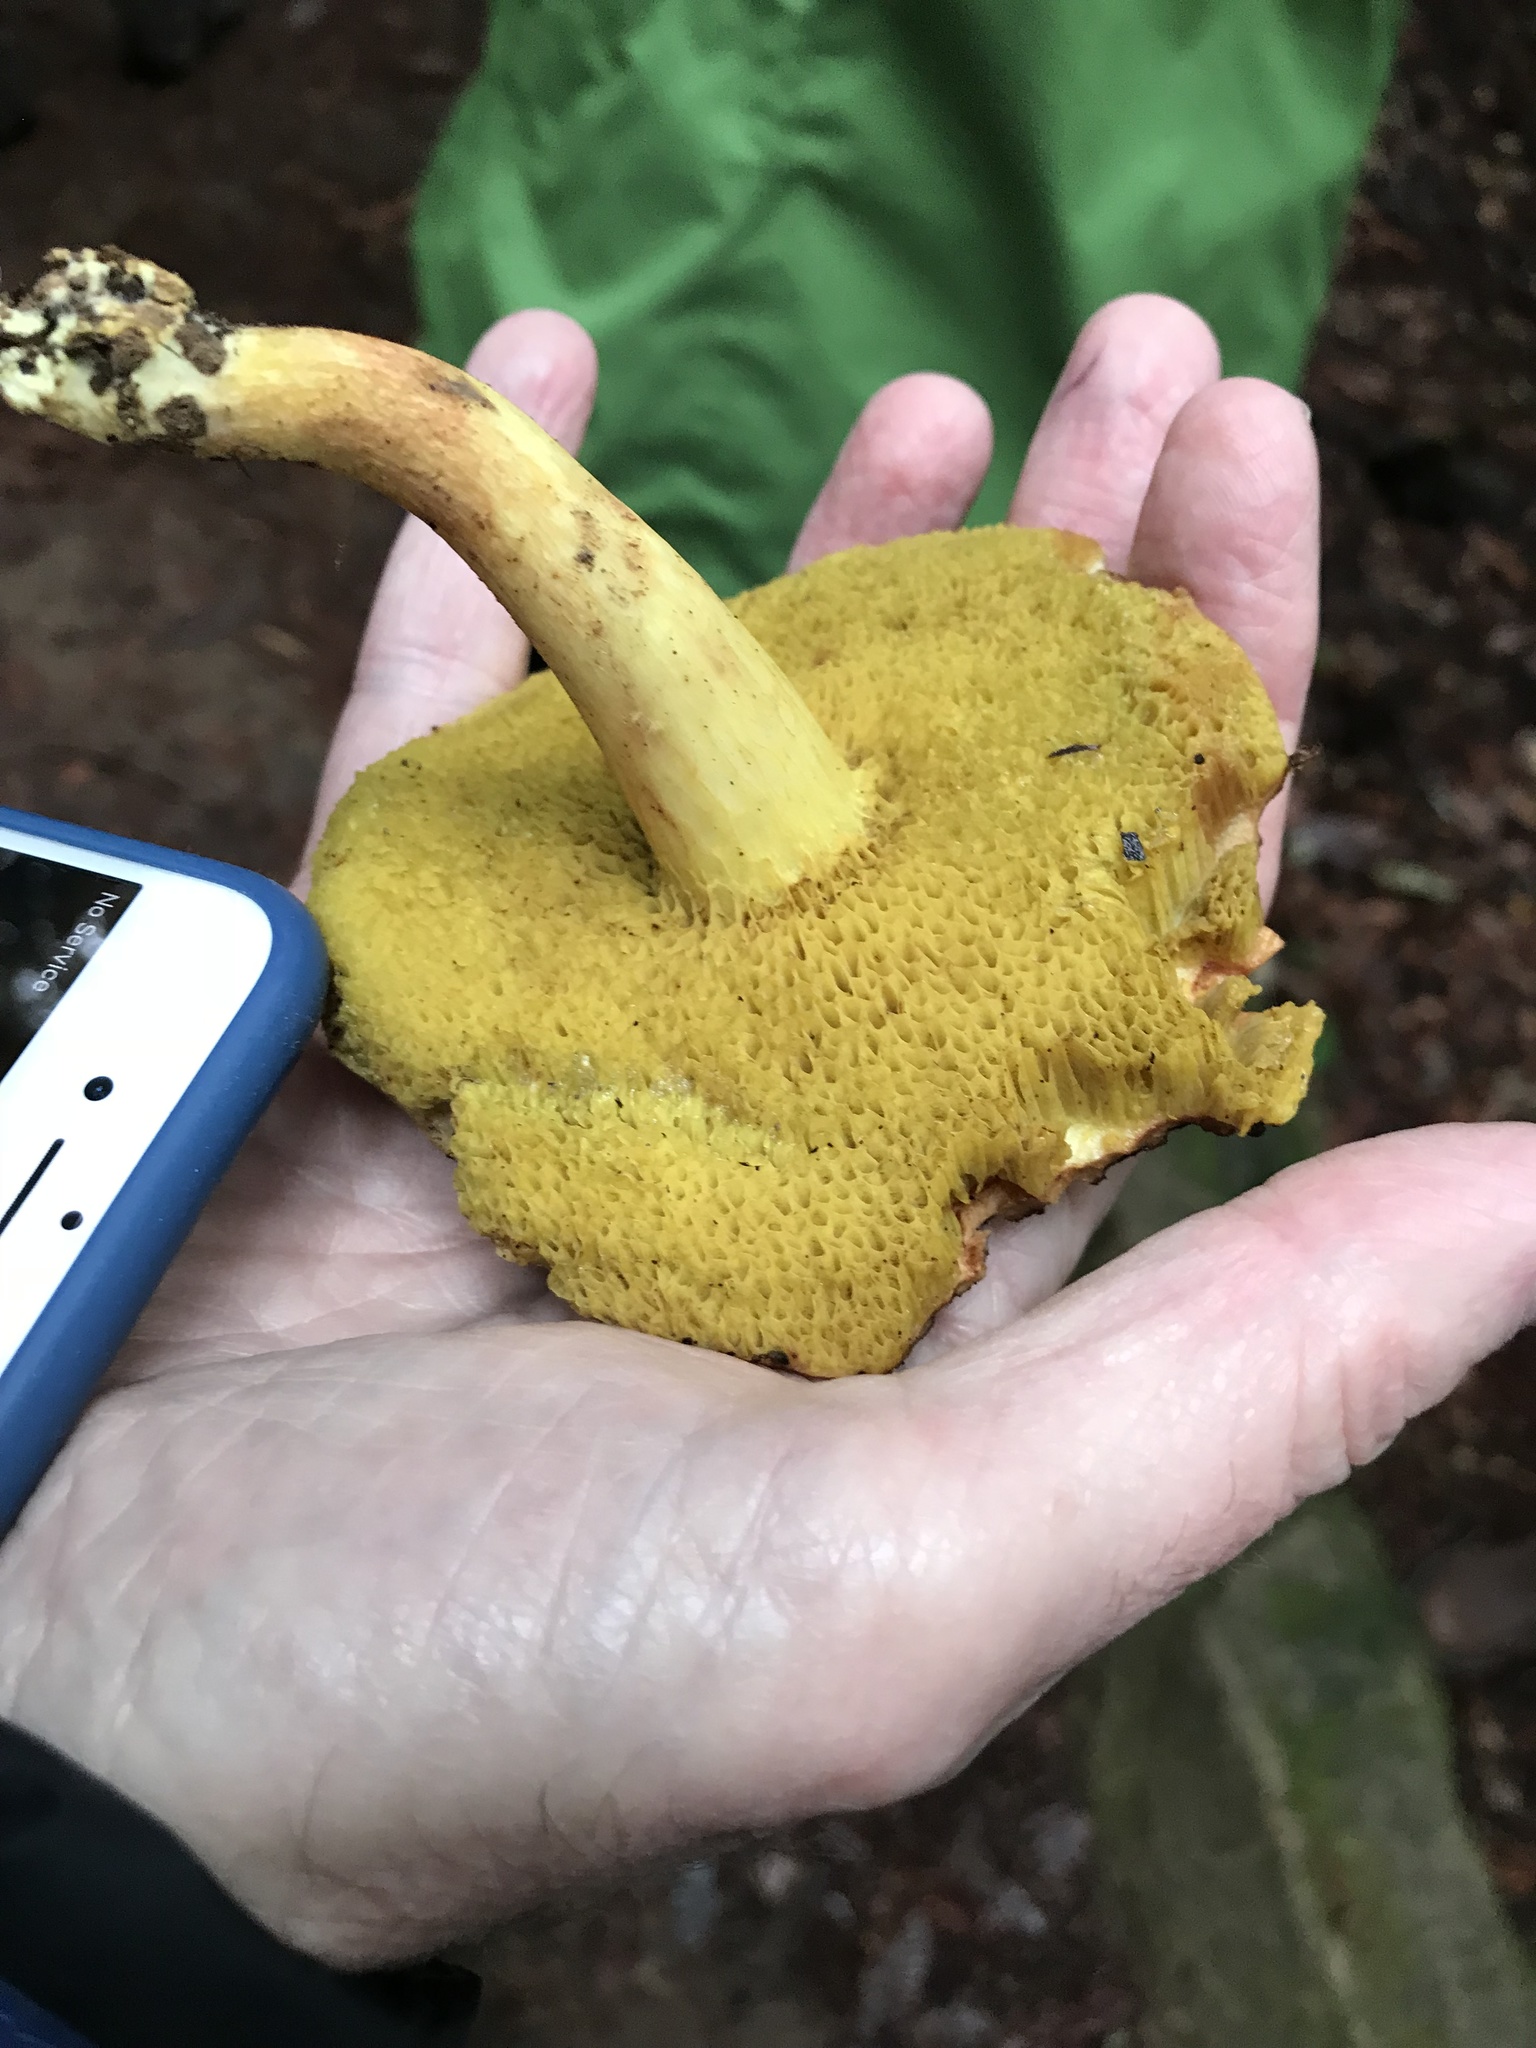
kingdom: Fungi
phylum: Basidiomycota
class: Agaricomycetes
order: Boletales
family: Boletaceae
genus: Xerocomus
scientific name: Xerocomus subtomentosus
